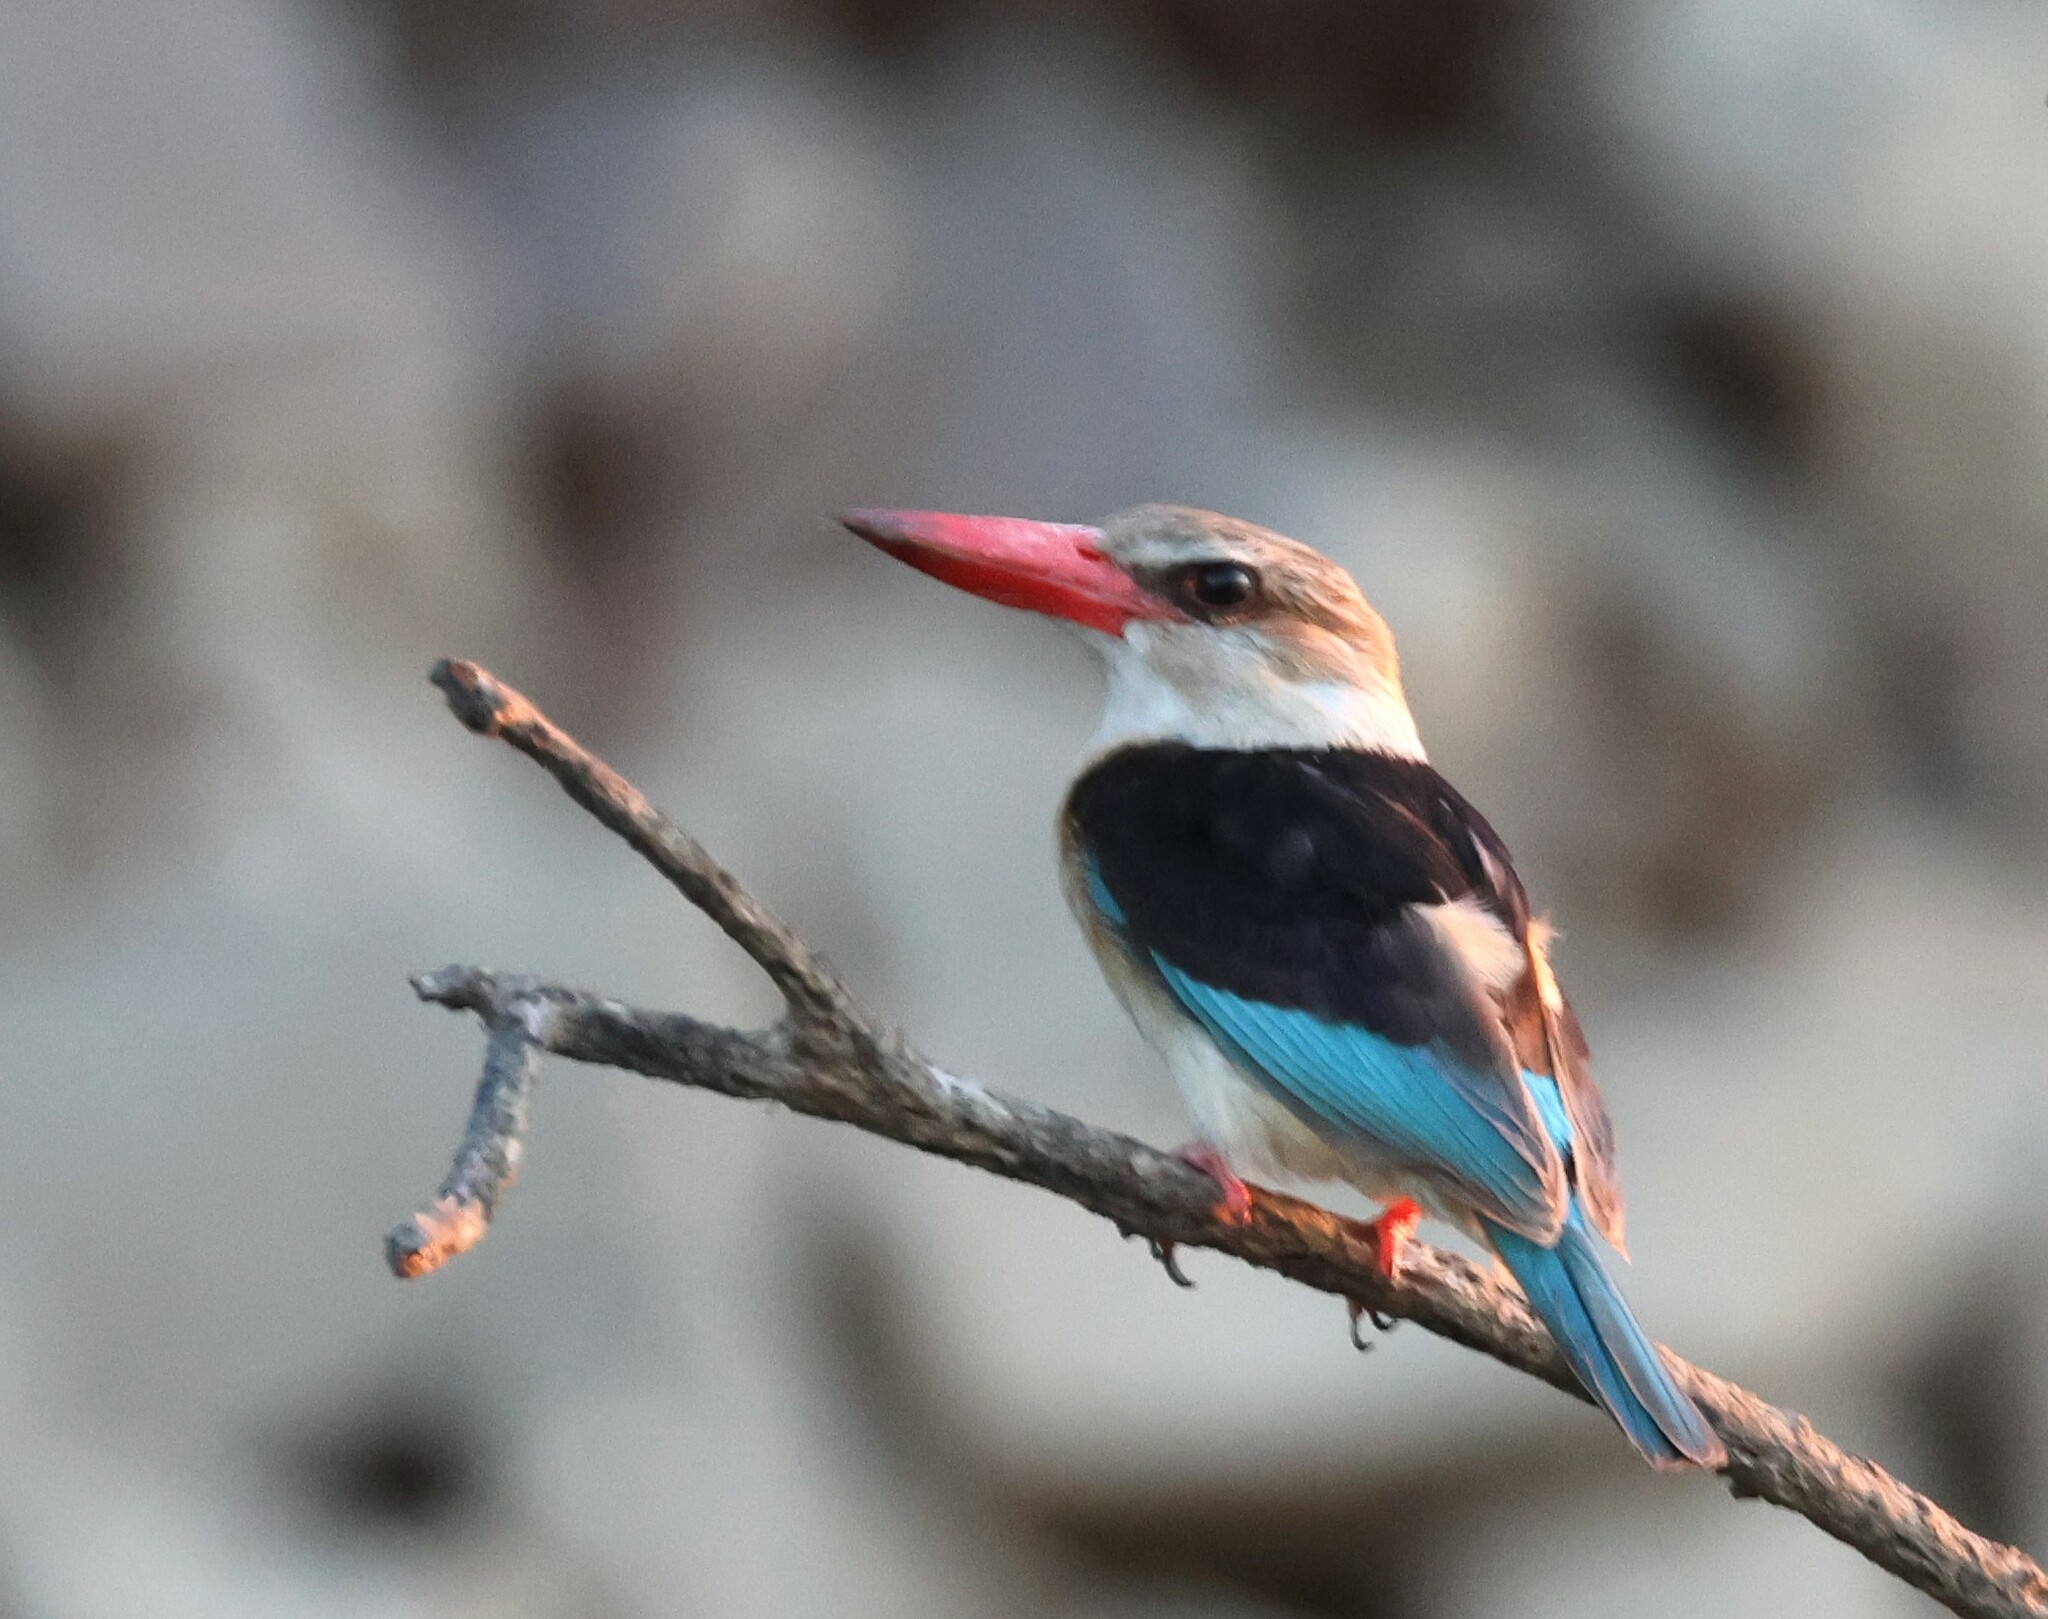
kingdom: Animalia
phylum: Chordata
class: Aves
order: Coraciiformes
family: Alcedinidae
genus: Halcyon
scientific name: Halcyon albiventris
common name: Brown-hooded kingfisher
